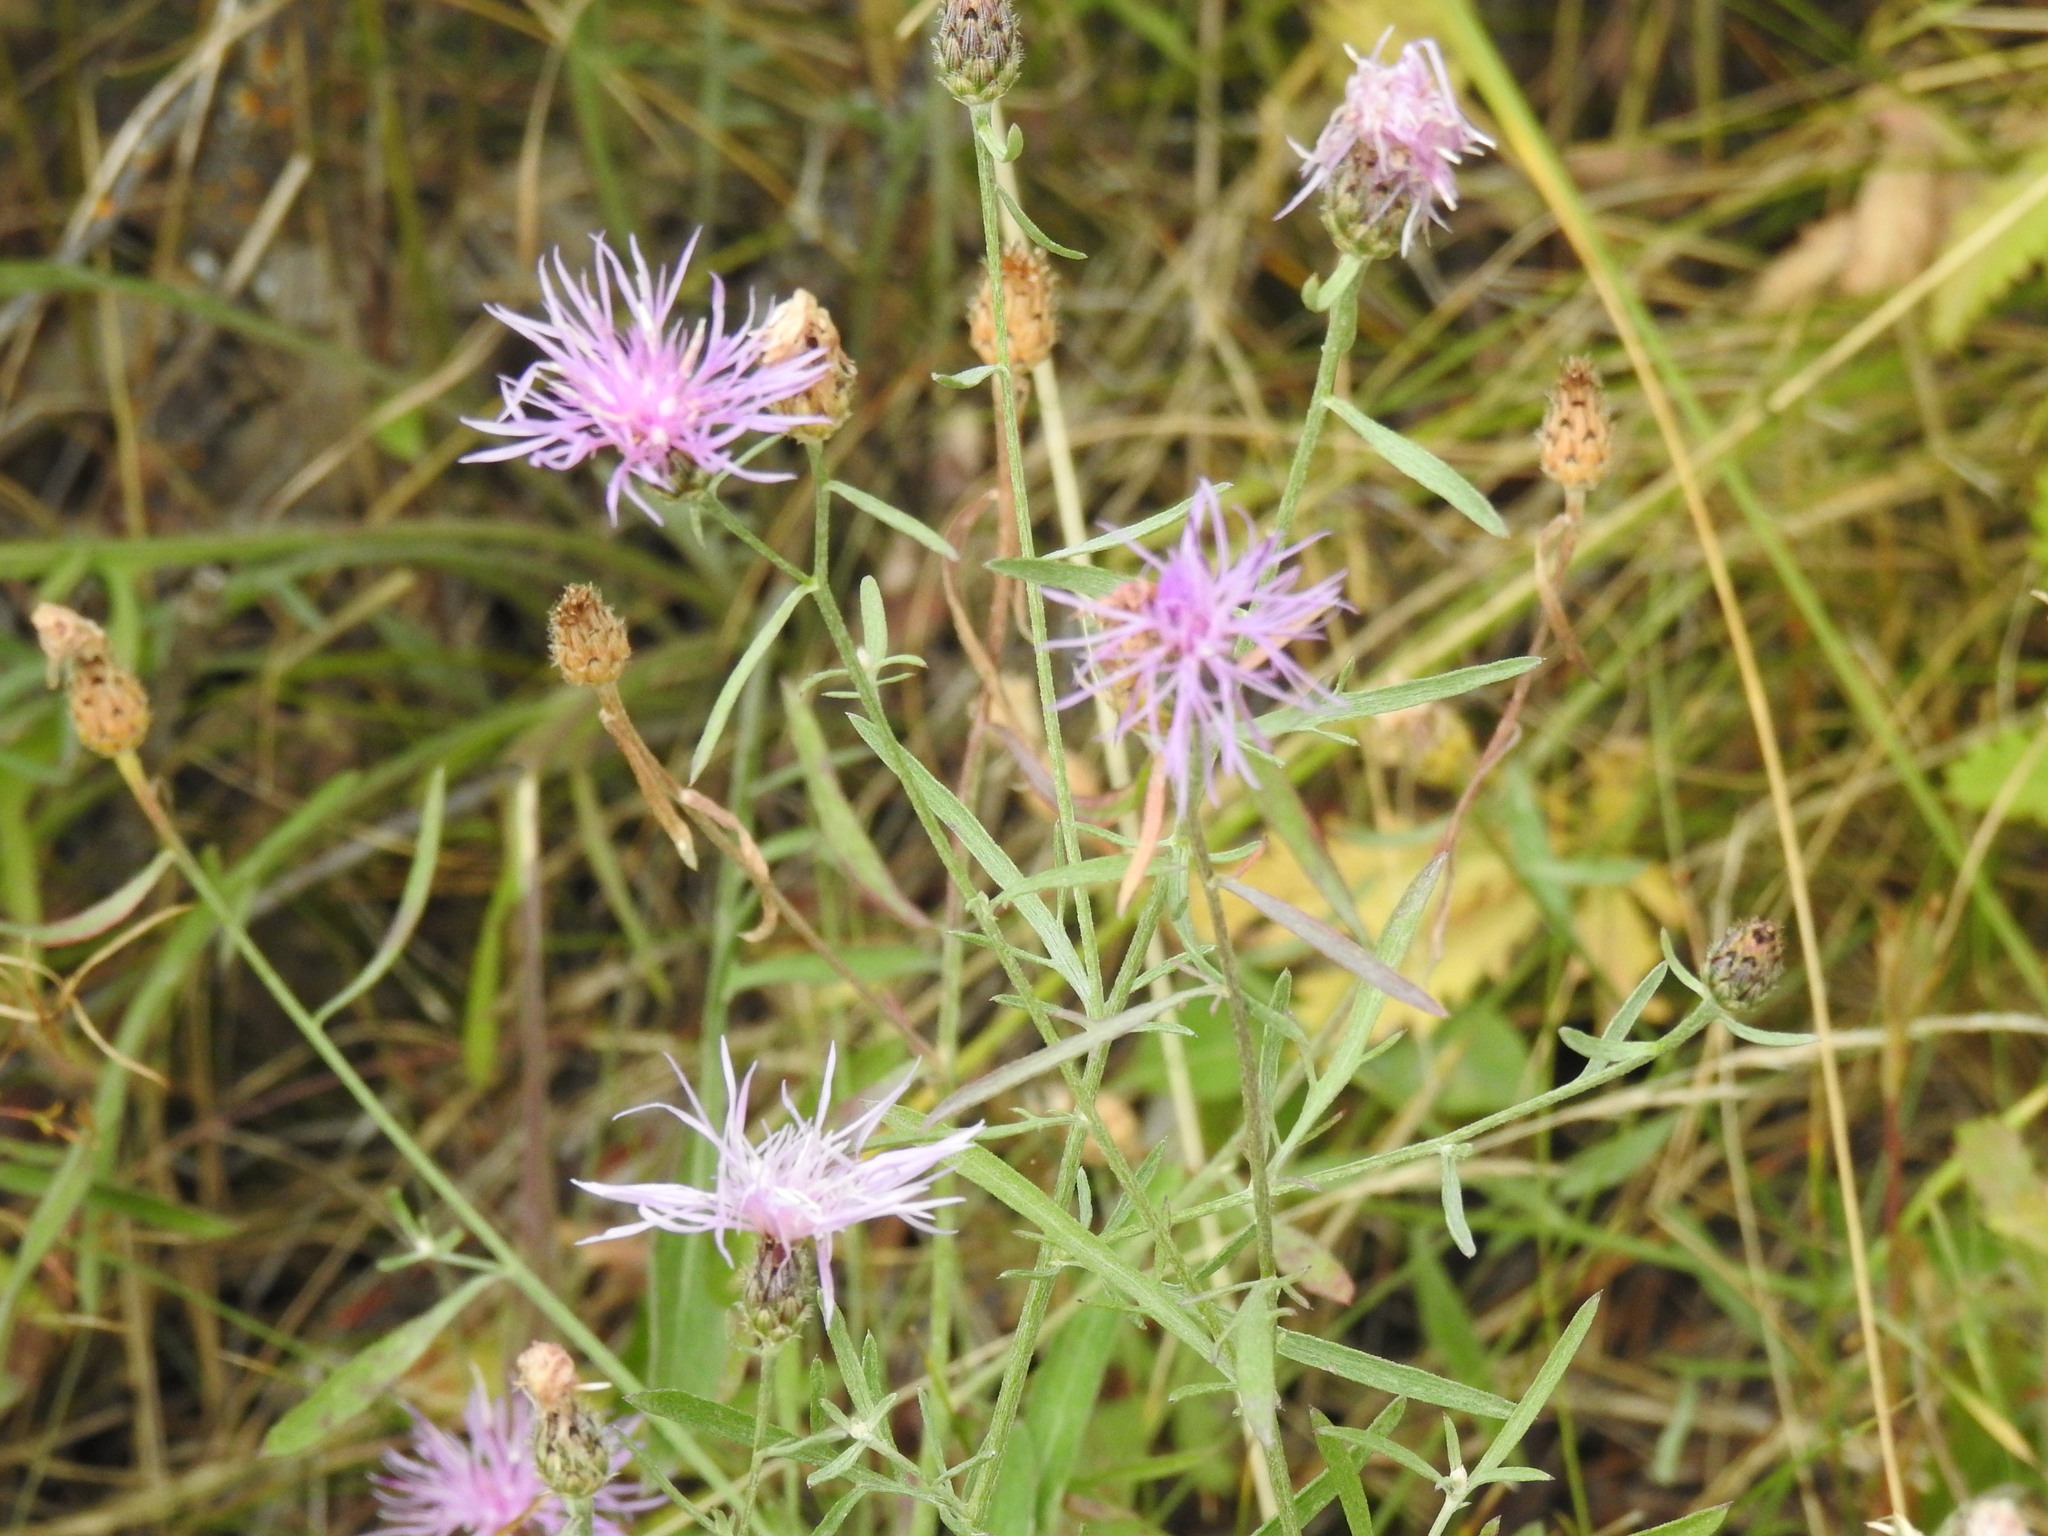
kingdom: Plantae
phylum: Tracheophyta
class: Magnoliopsida
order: Asterales
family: Asteraceae
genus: Centaurea
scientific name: Centaurea stoebe
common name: Spotted knapweed
